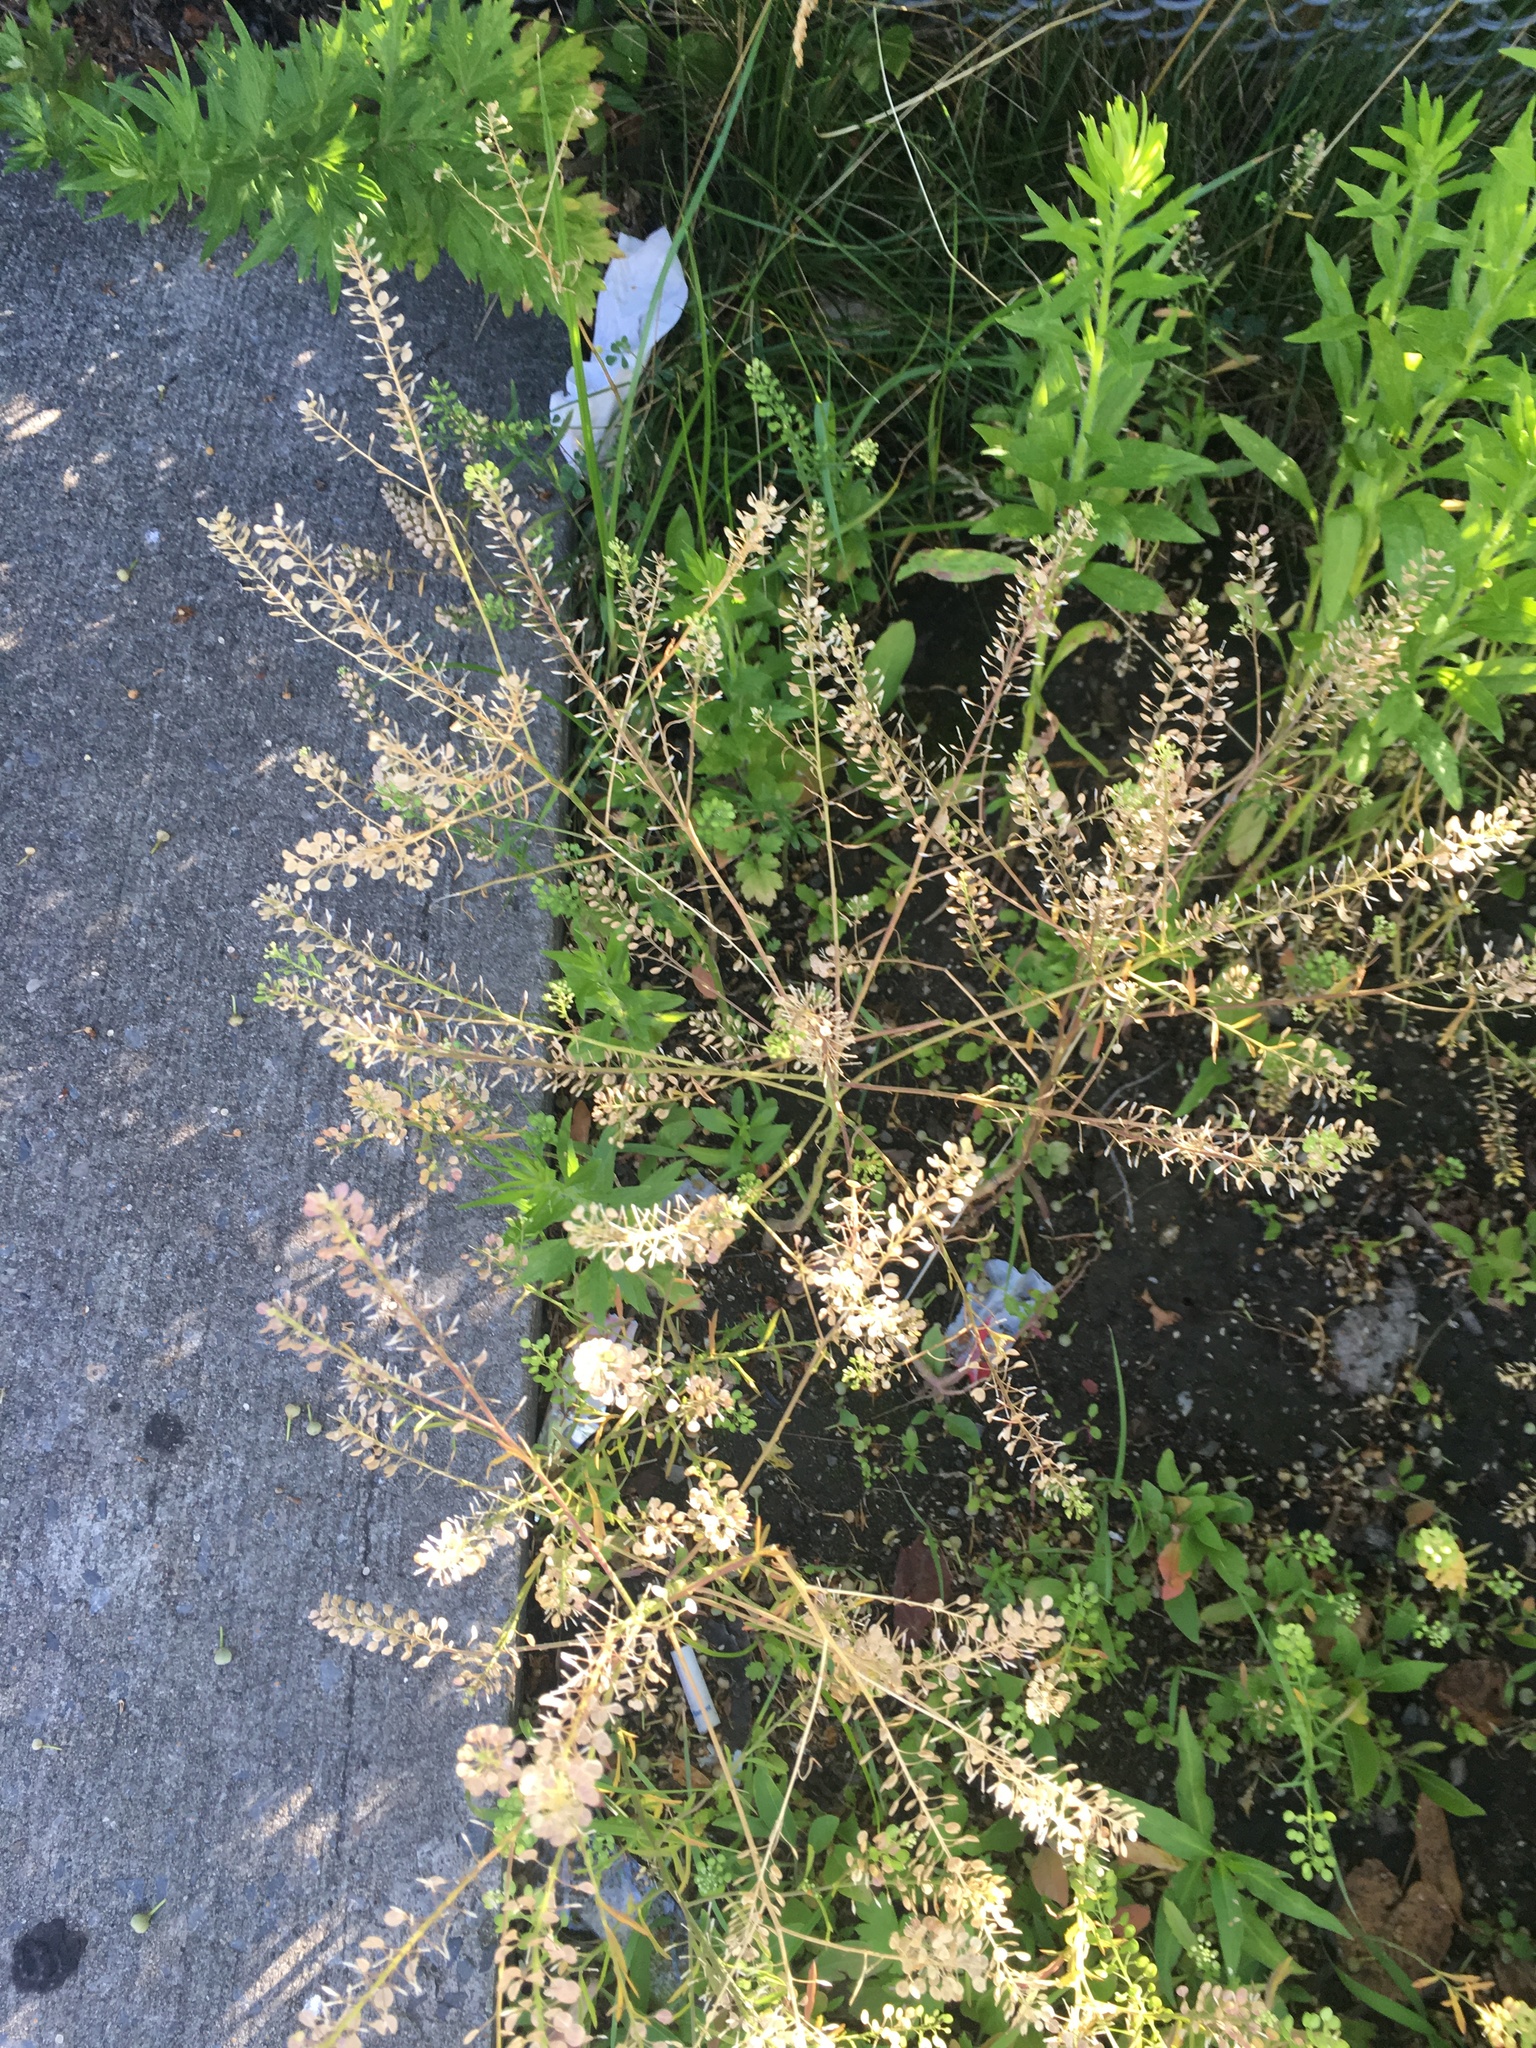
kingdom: Plantae
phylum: Tracheophyta
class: Magnoliopsida
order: Brassicales
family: Brassicaceae
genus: Lepidium
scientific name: Lepidium virginicum
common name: Least pepperwort
